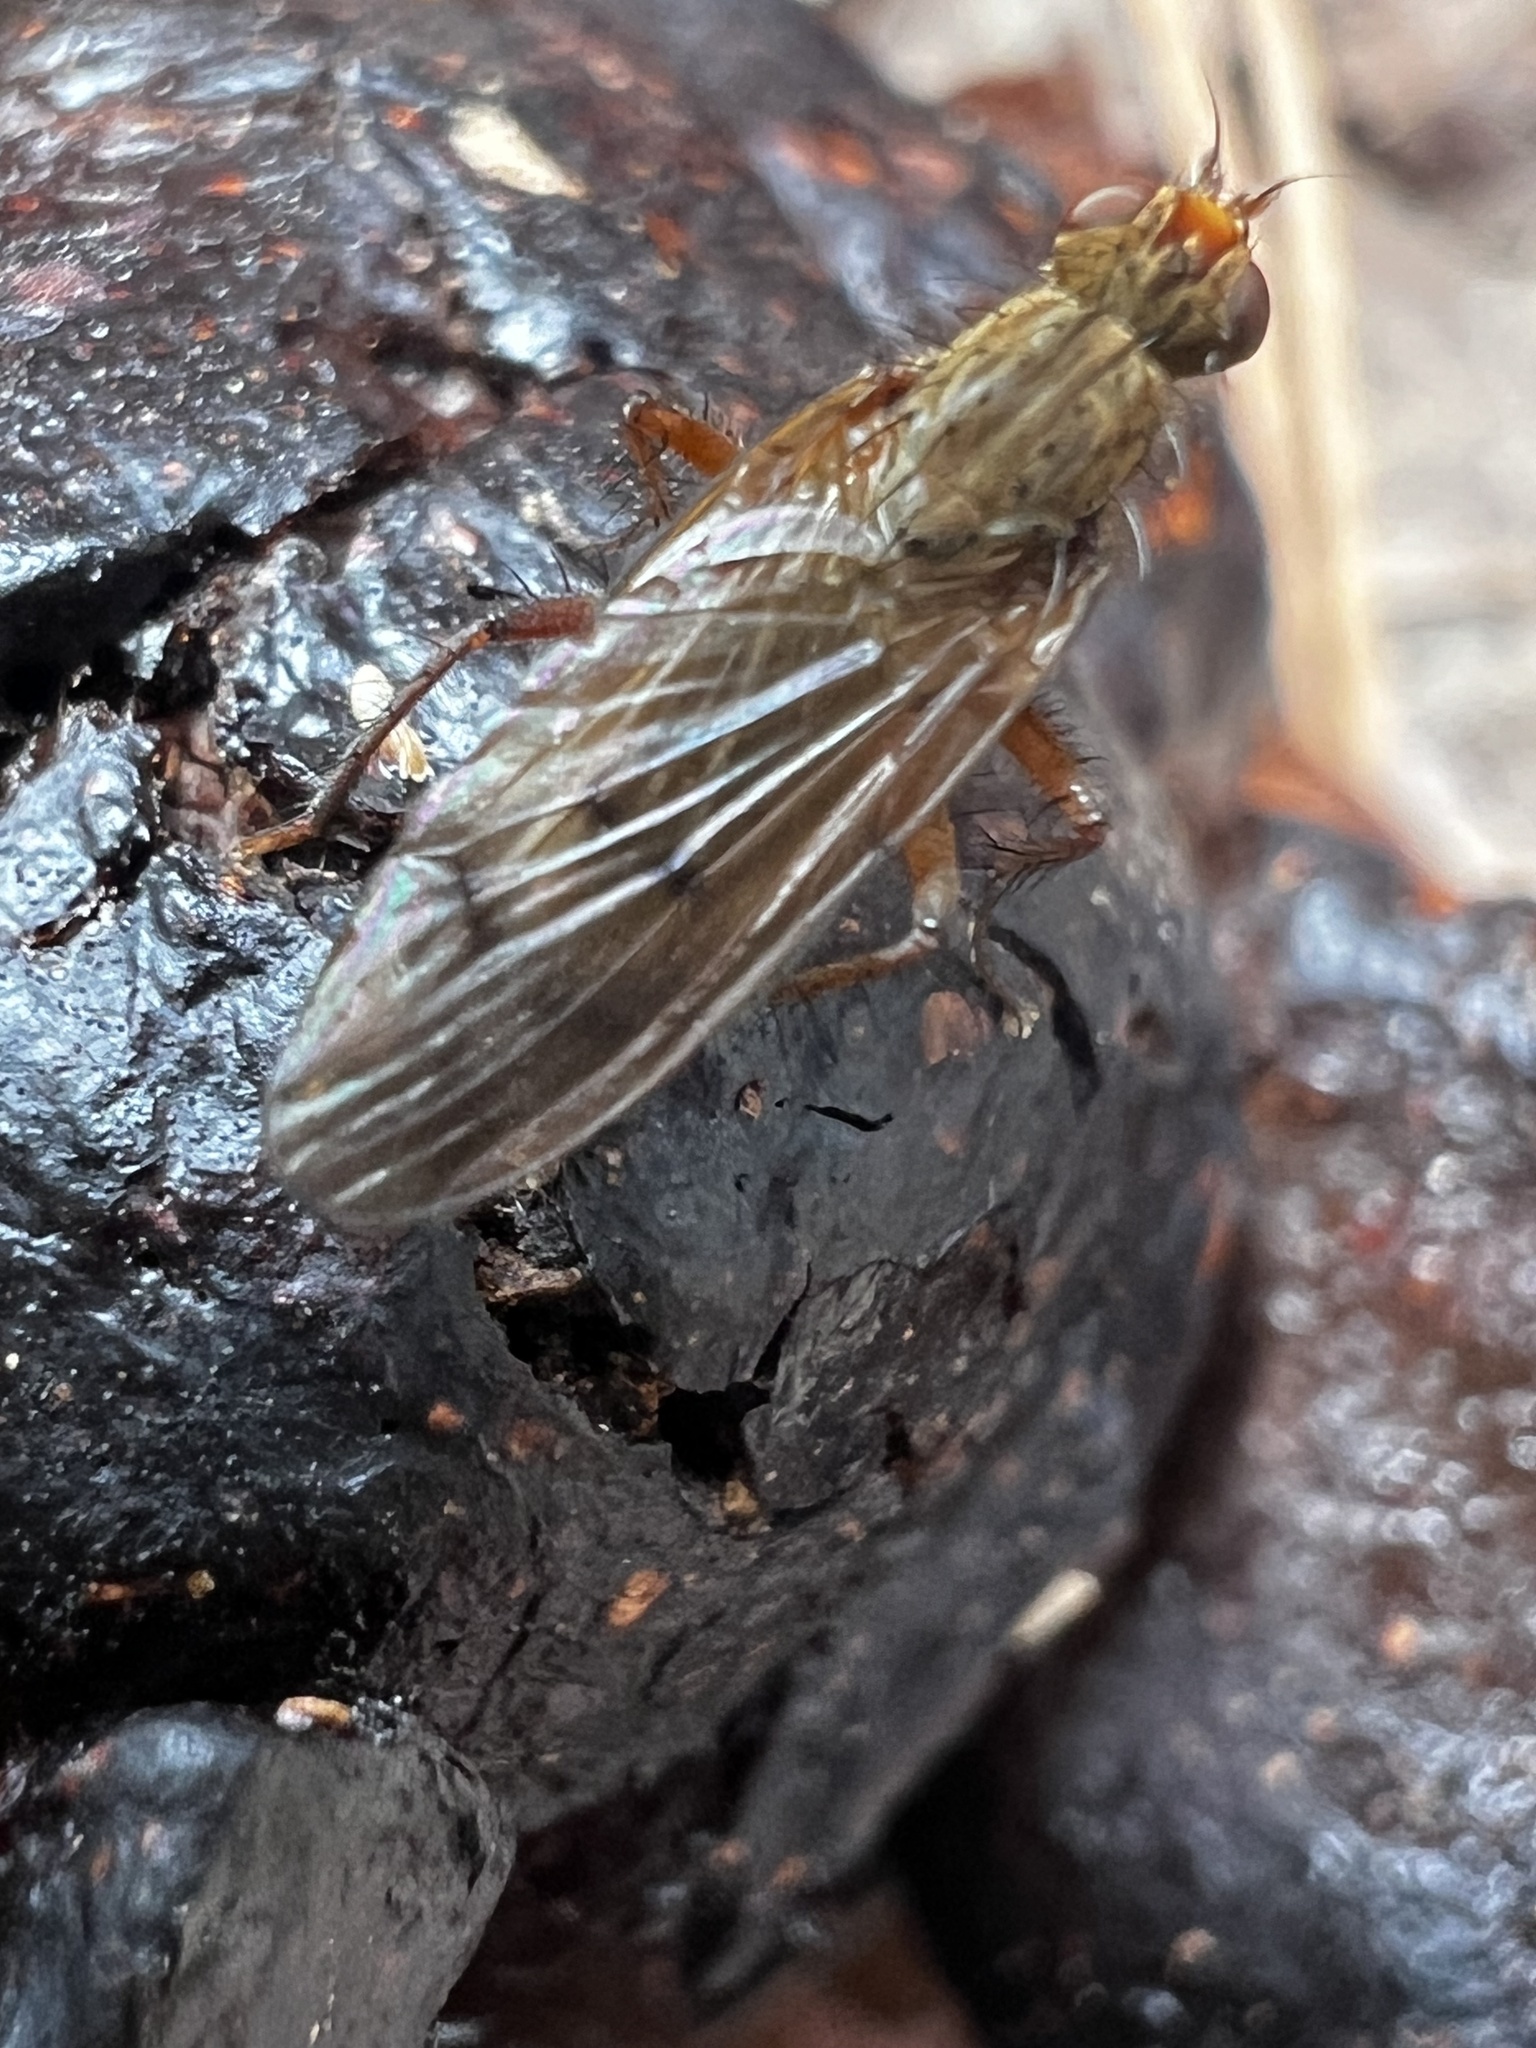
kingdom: Animalia
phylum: Arthropoda
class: Insecta
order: Diptera
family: Scathophagidae
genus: Scathophaga
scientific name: Scathophaga furcata
